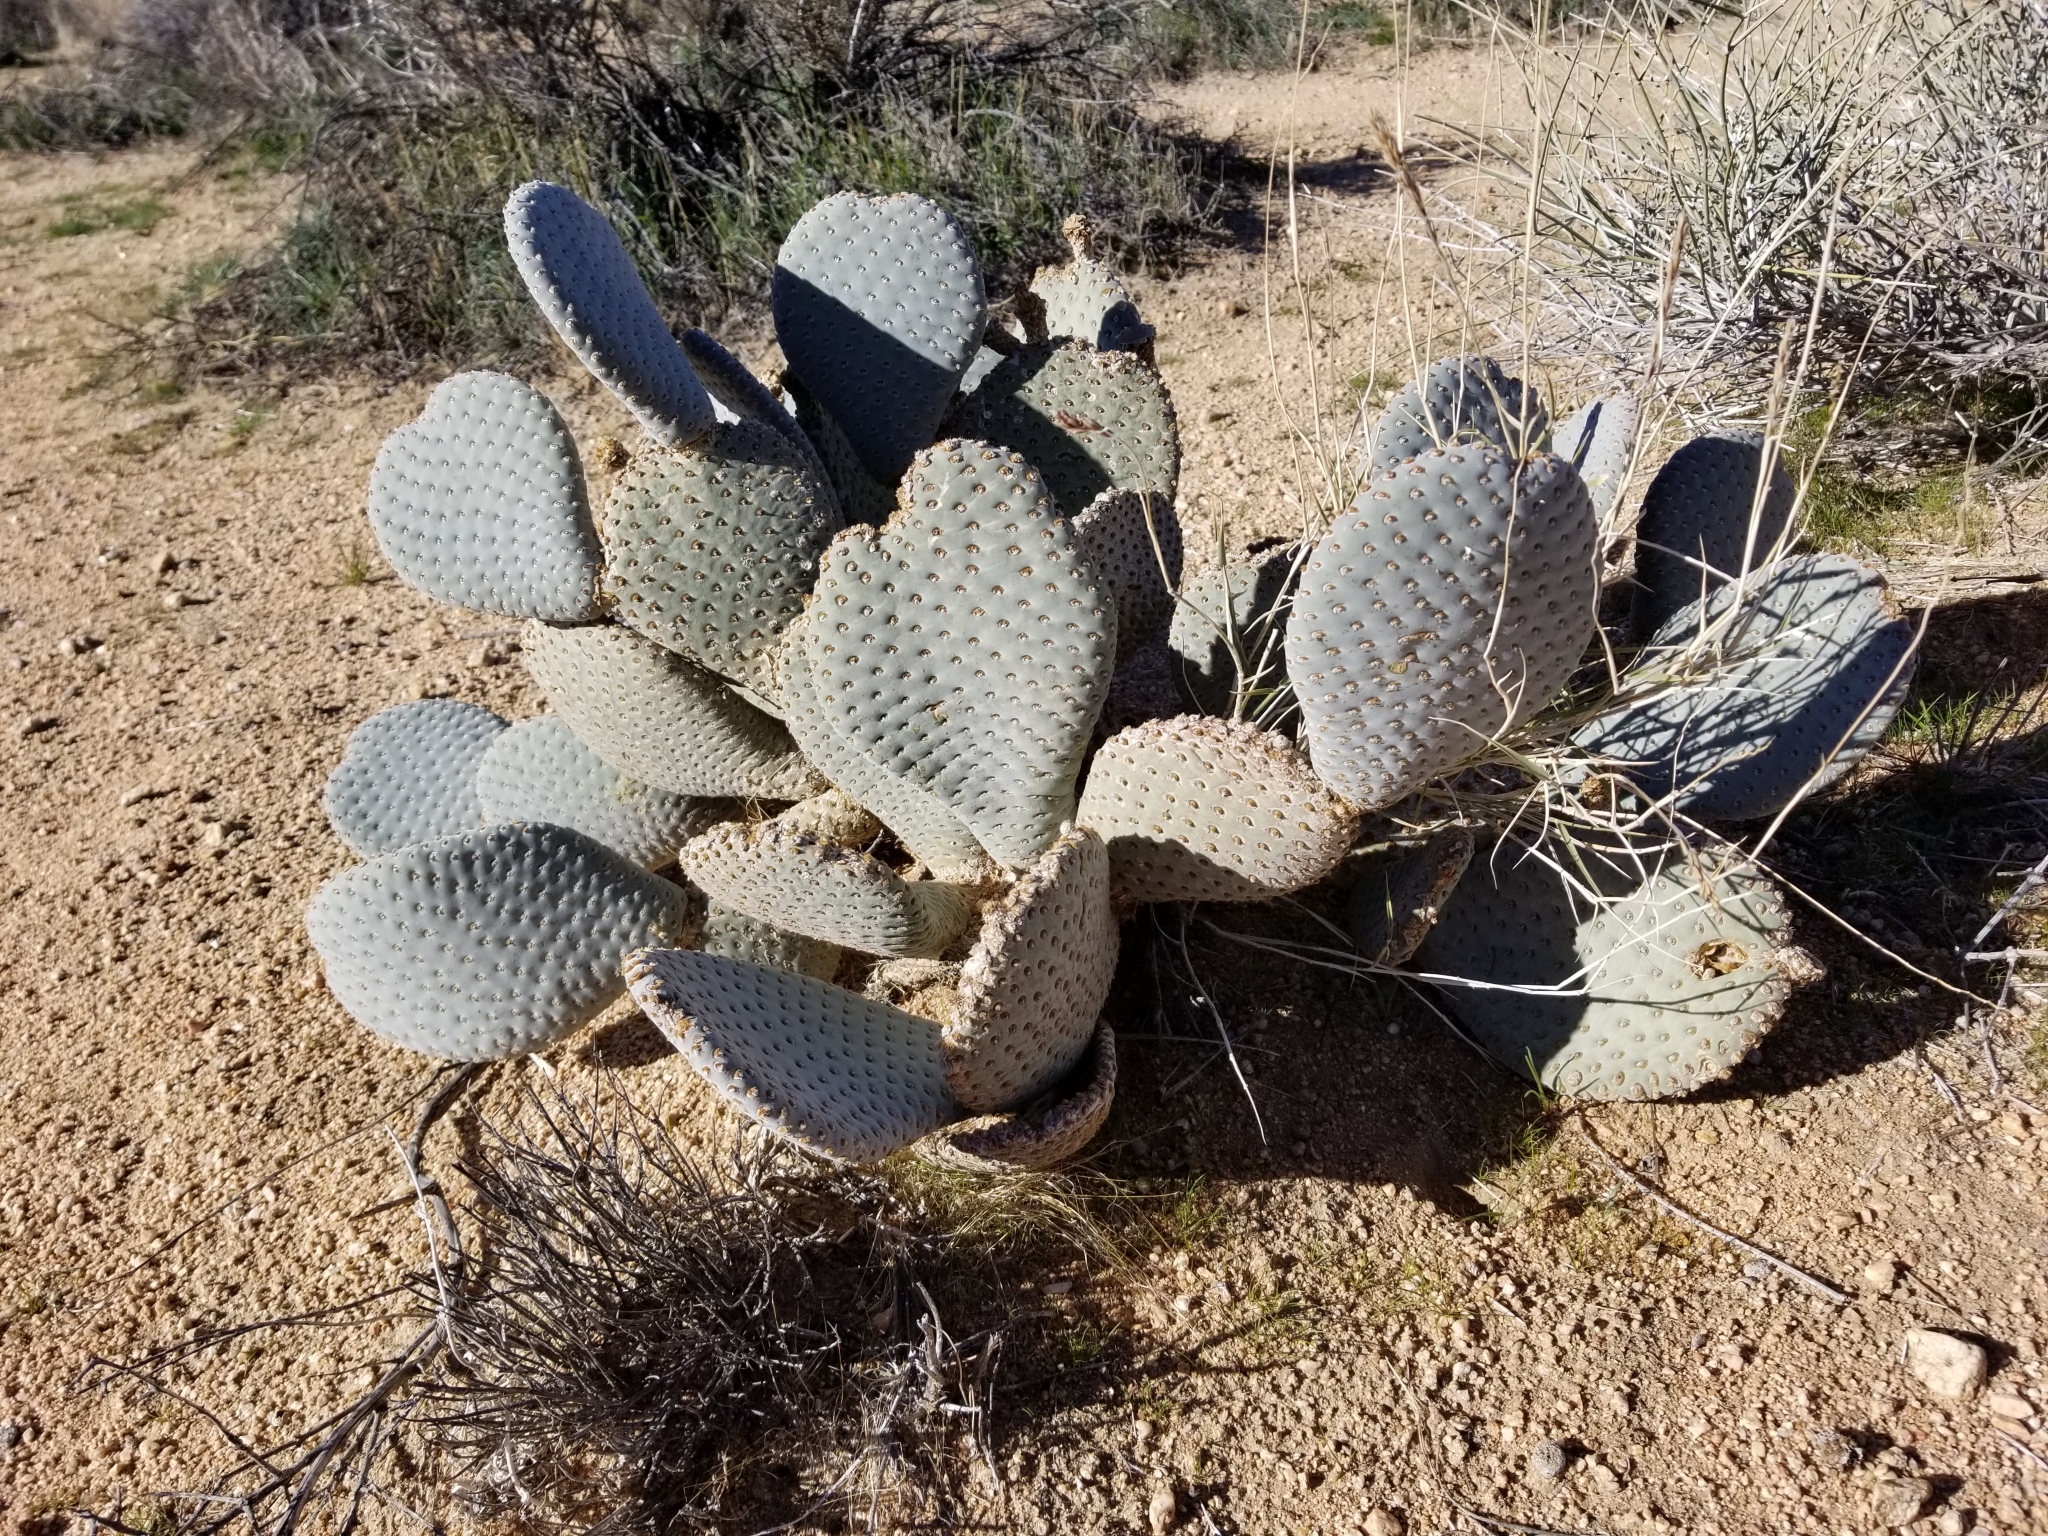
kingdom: Plantae
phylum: Tracheophyta
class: Magnoliopsida
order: Caryophyllales
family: Cactaceae
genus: Opuntia
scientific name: Opuntia basilaris
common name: Beavertail prickly-pear
